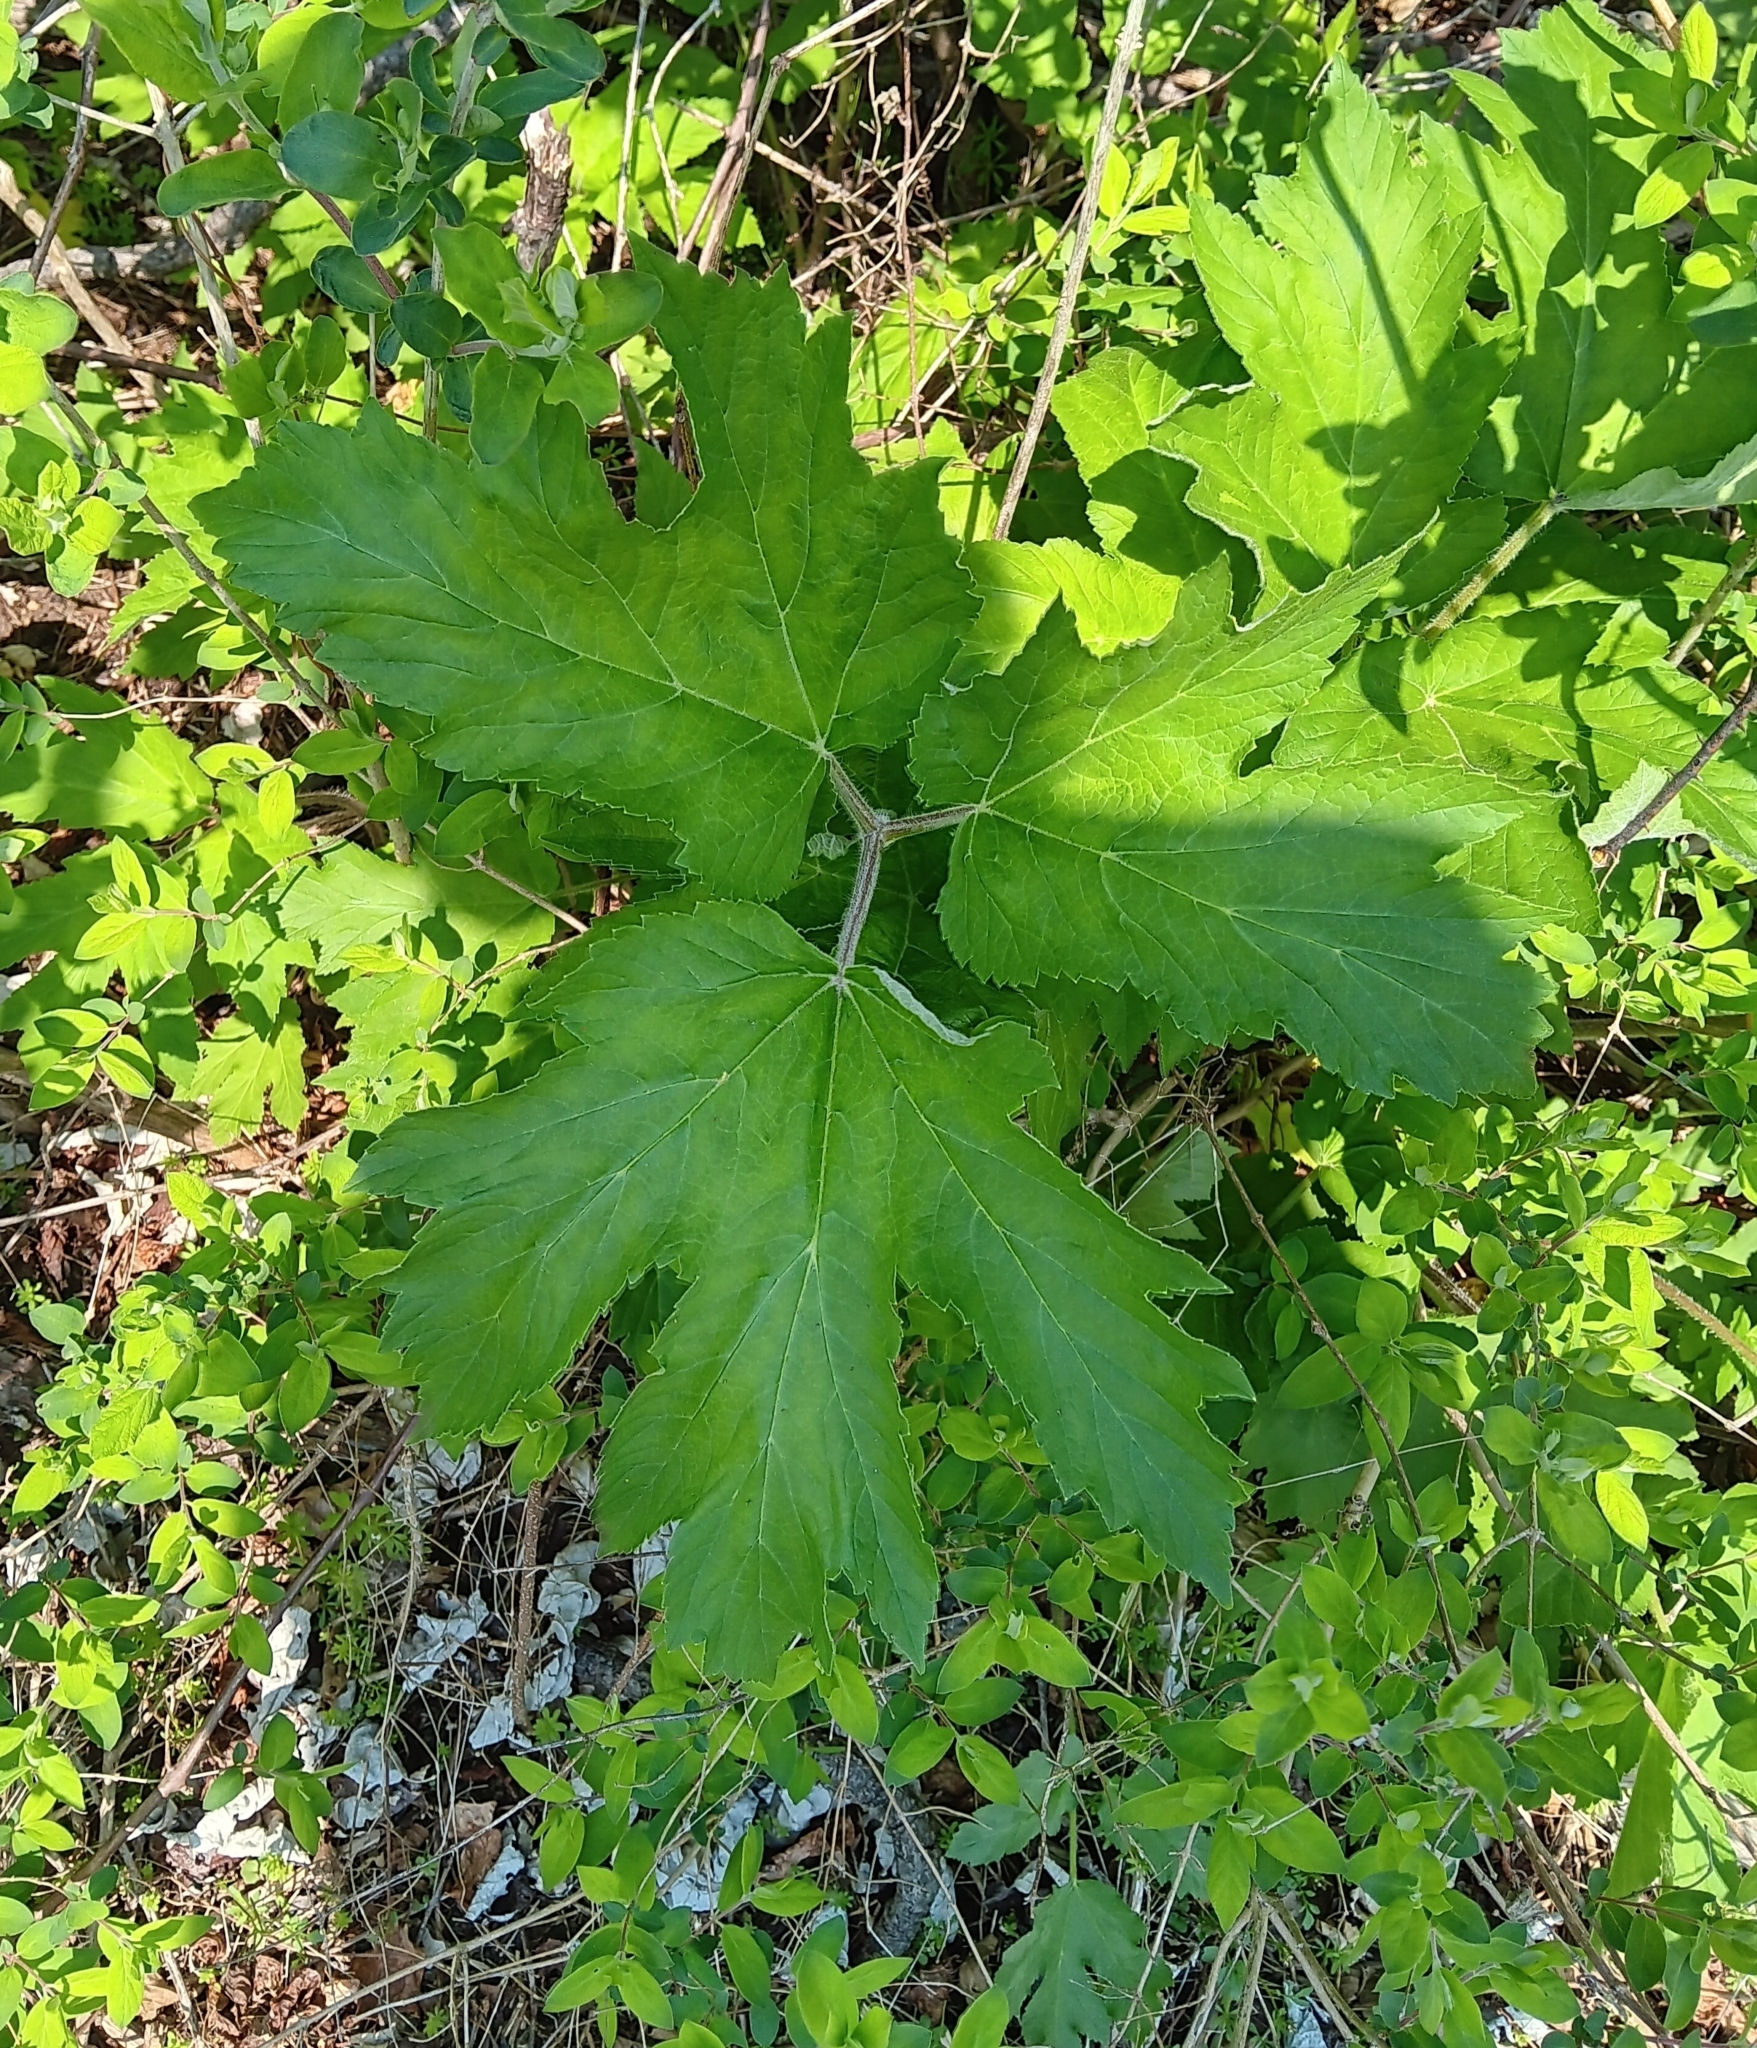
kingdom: Plantae
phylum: Tracheophyta
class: Magnoliopsida
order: Apiales
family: Apiaceae
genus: Heracleum
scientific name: Heracleum maximum
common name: American cow parsnip
